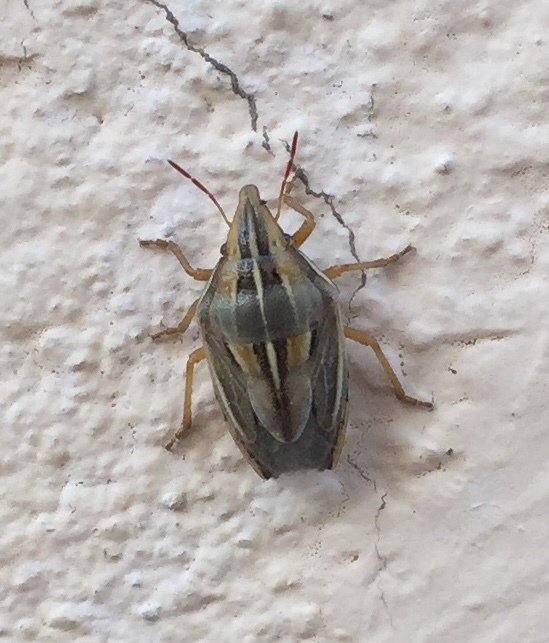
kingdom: Animalia
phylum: Arthropoda
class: Insecta
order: Hemiptera
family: Pentatomidae
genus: Aelia
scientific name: Aelia rostrata
